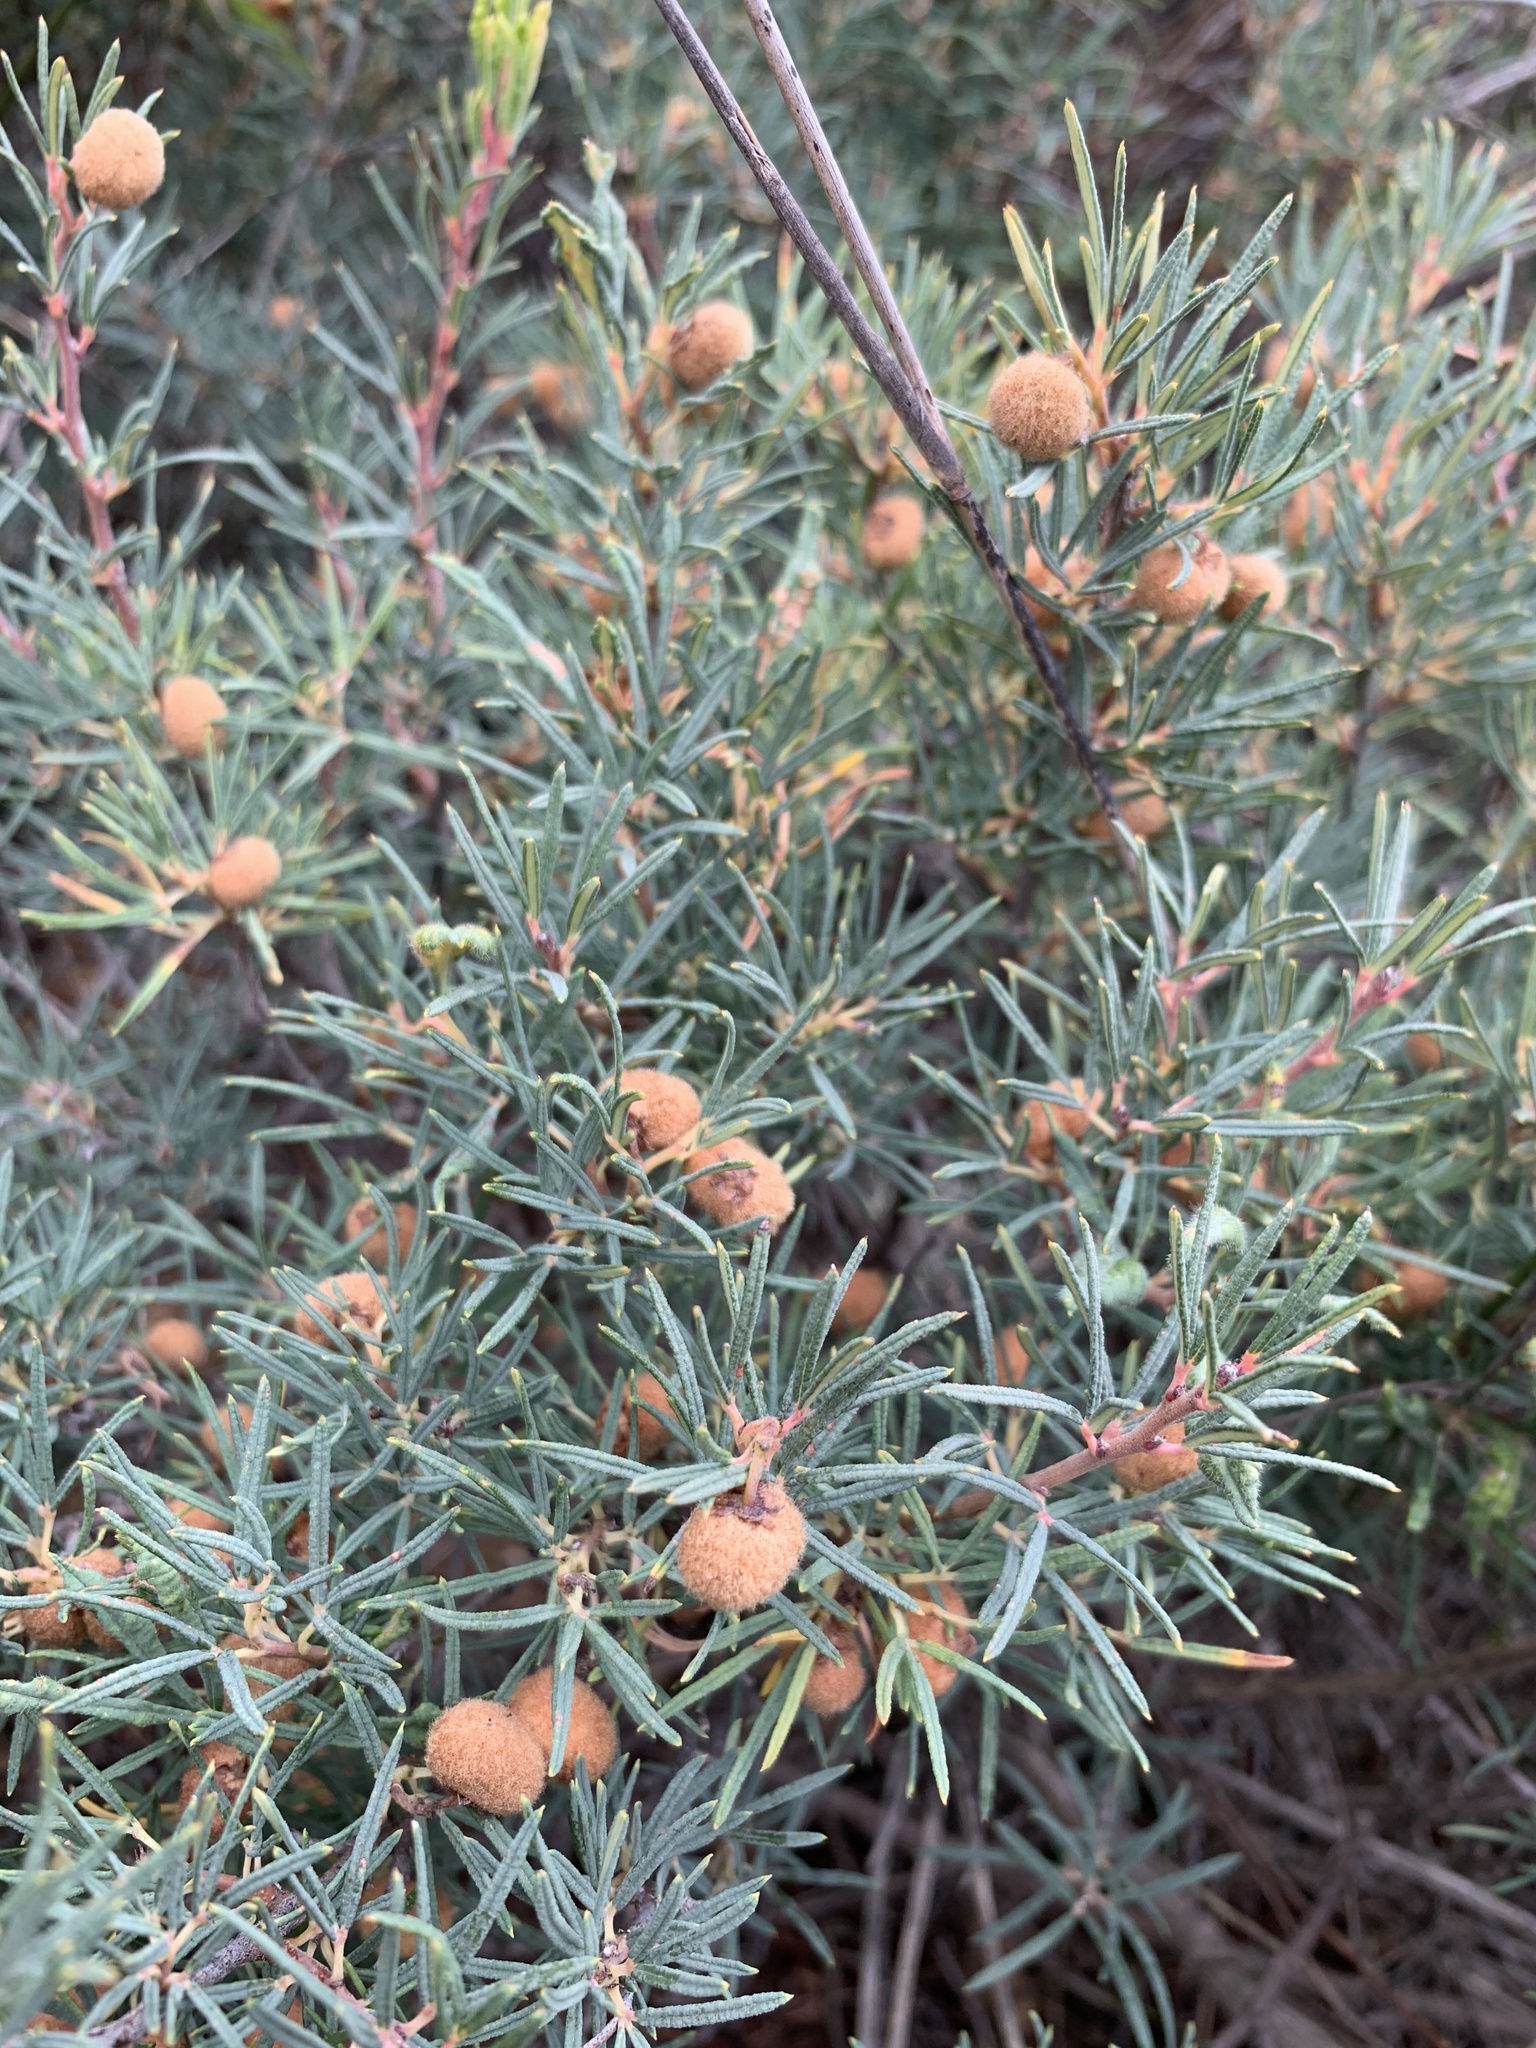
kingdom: Plantae
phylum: Tracheophyta
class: Magnoliopsida
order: Sapindales
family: Anacardiaceae
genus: Searsia
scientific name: Searsia rosmarinifolia
